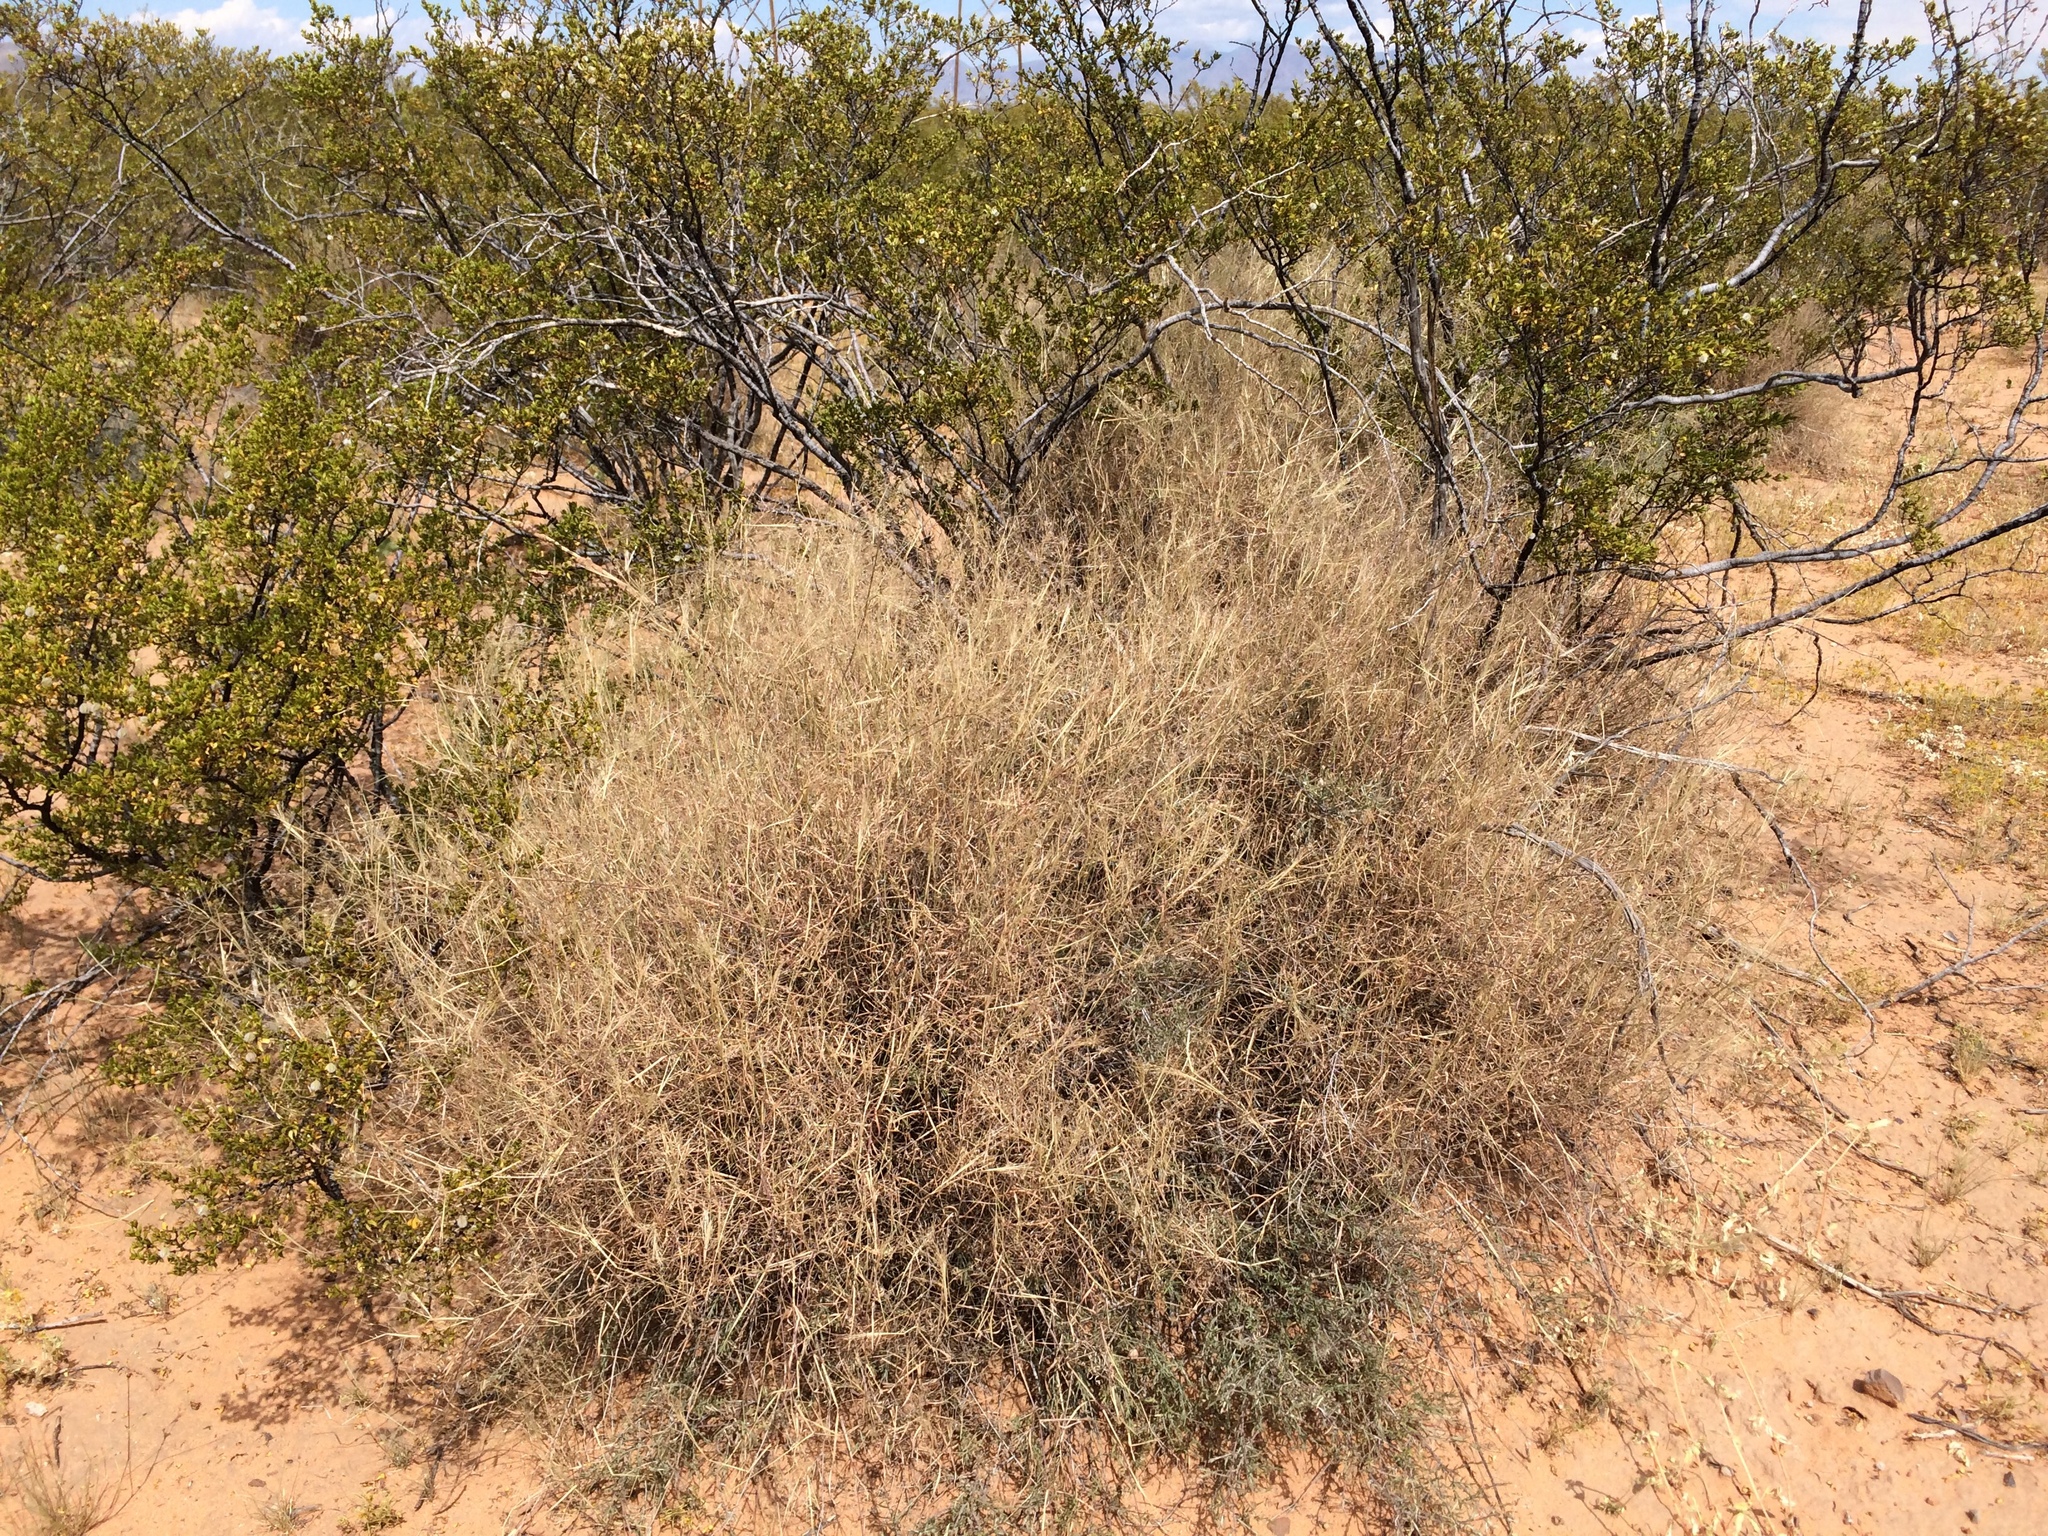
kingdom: Plantae
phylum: Tracheophyta
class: Liliopsida
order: Poales
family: Poaceae
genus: Muhlenbergia
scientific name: Muhlenbergia porteri
